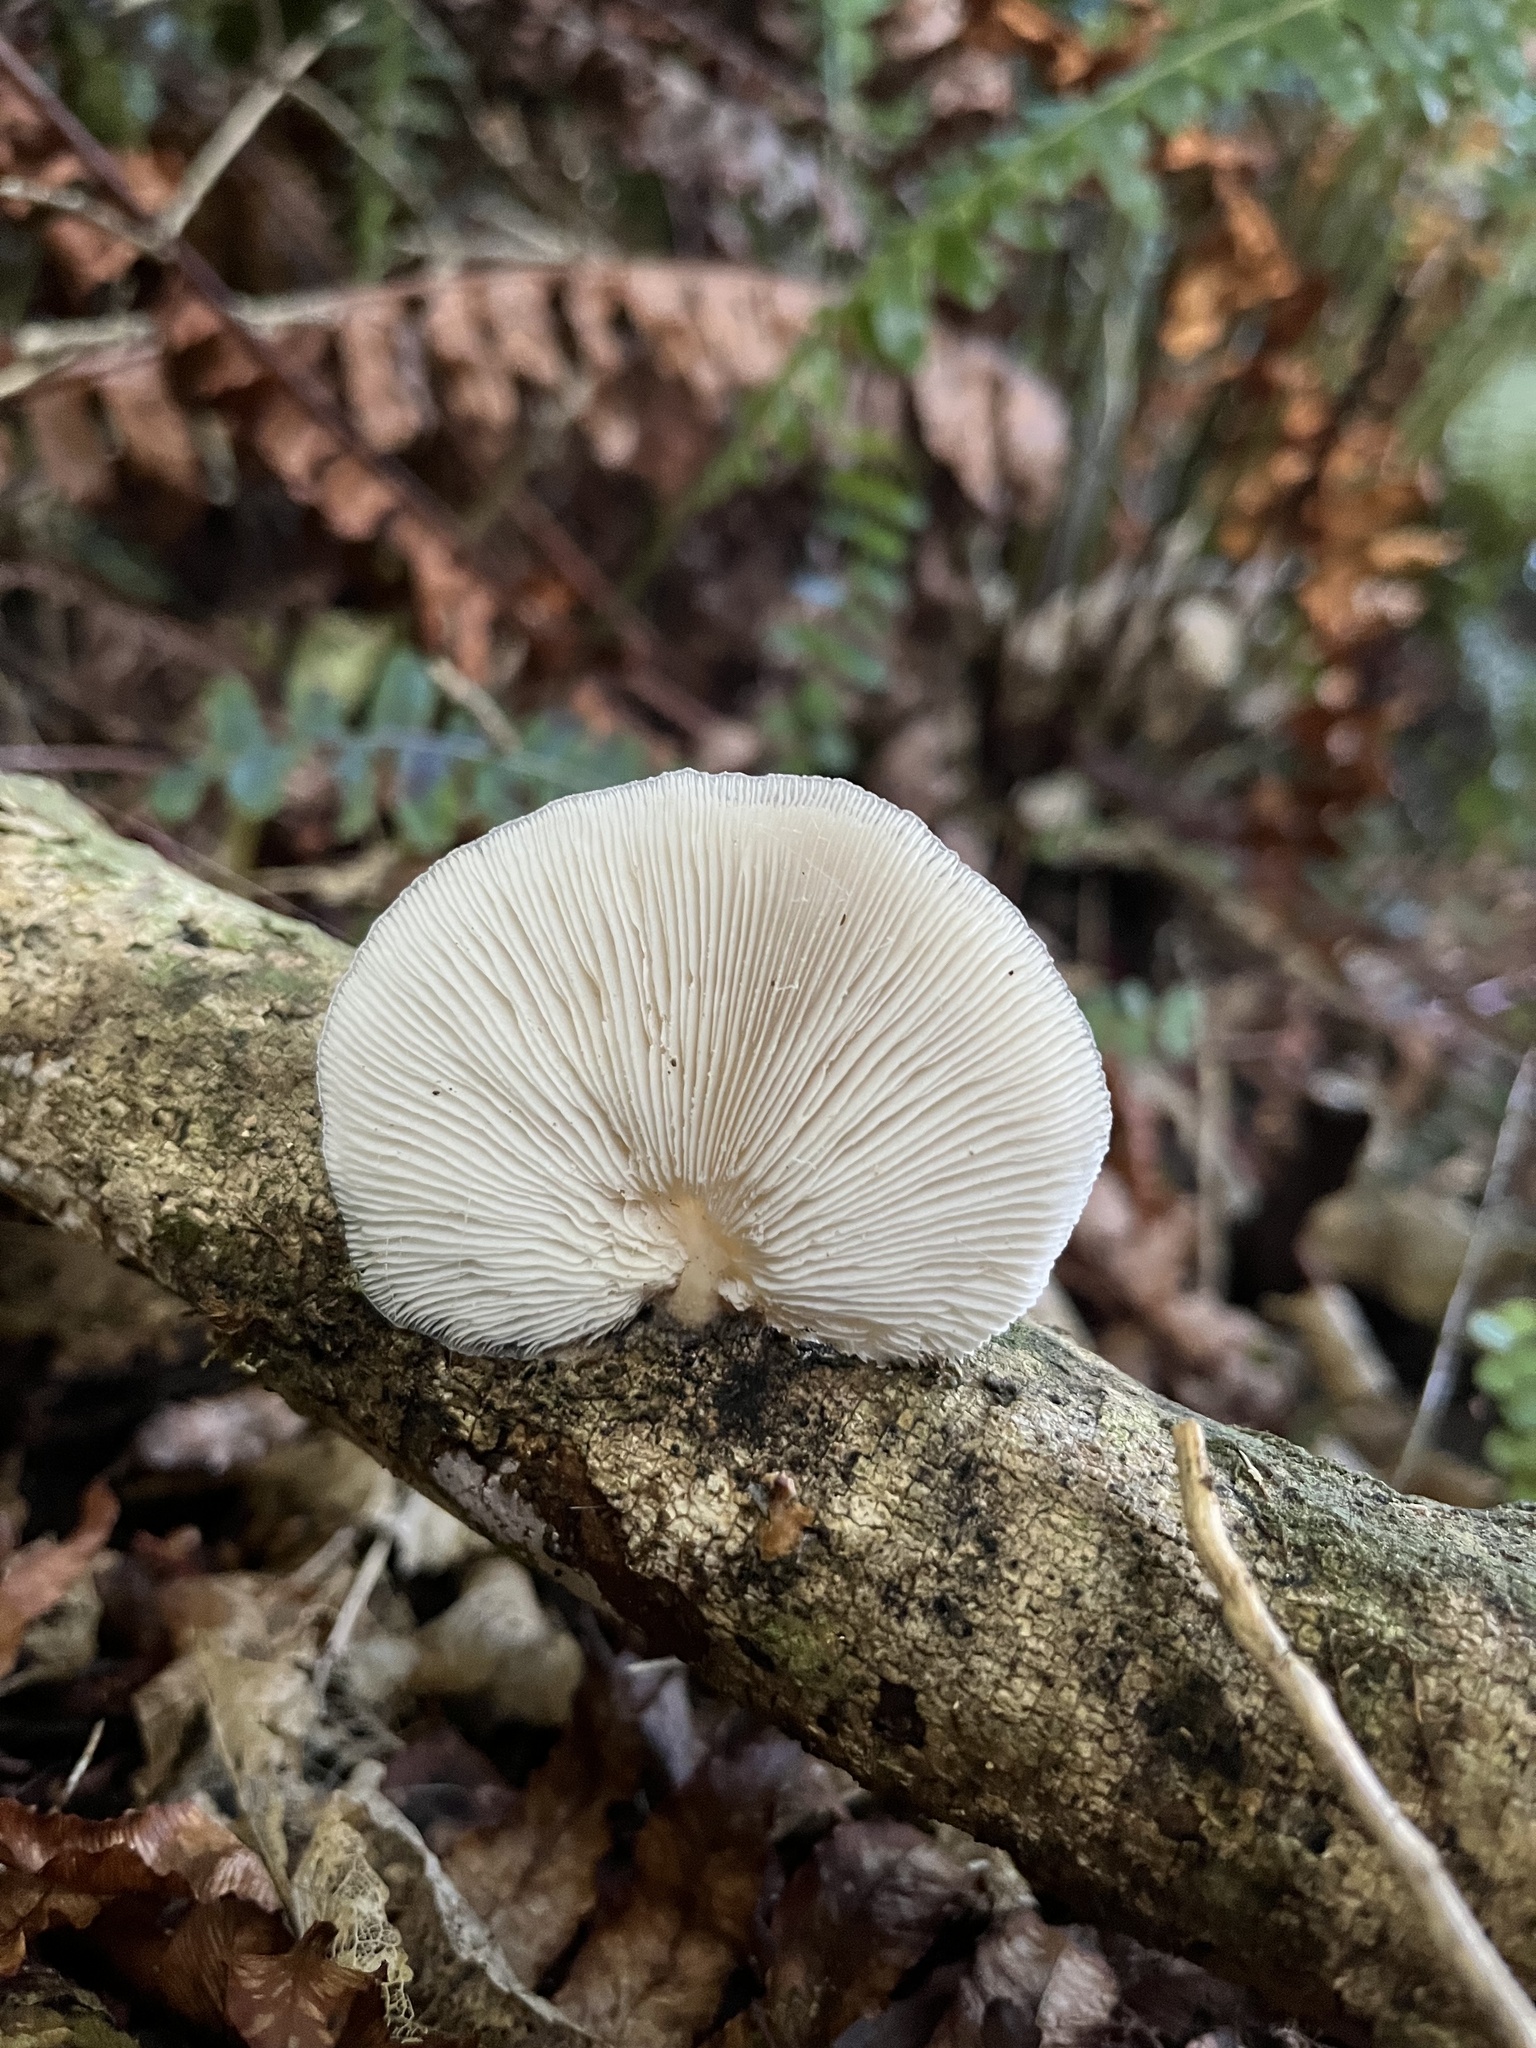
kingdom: Fungi
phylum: Basidiomycota
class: Agaricomycetes
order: Agaricales
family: Tricholomataceae
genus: Conchomyces
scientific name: Conchomyces bursiformis
